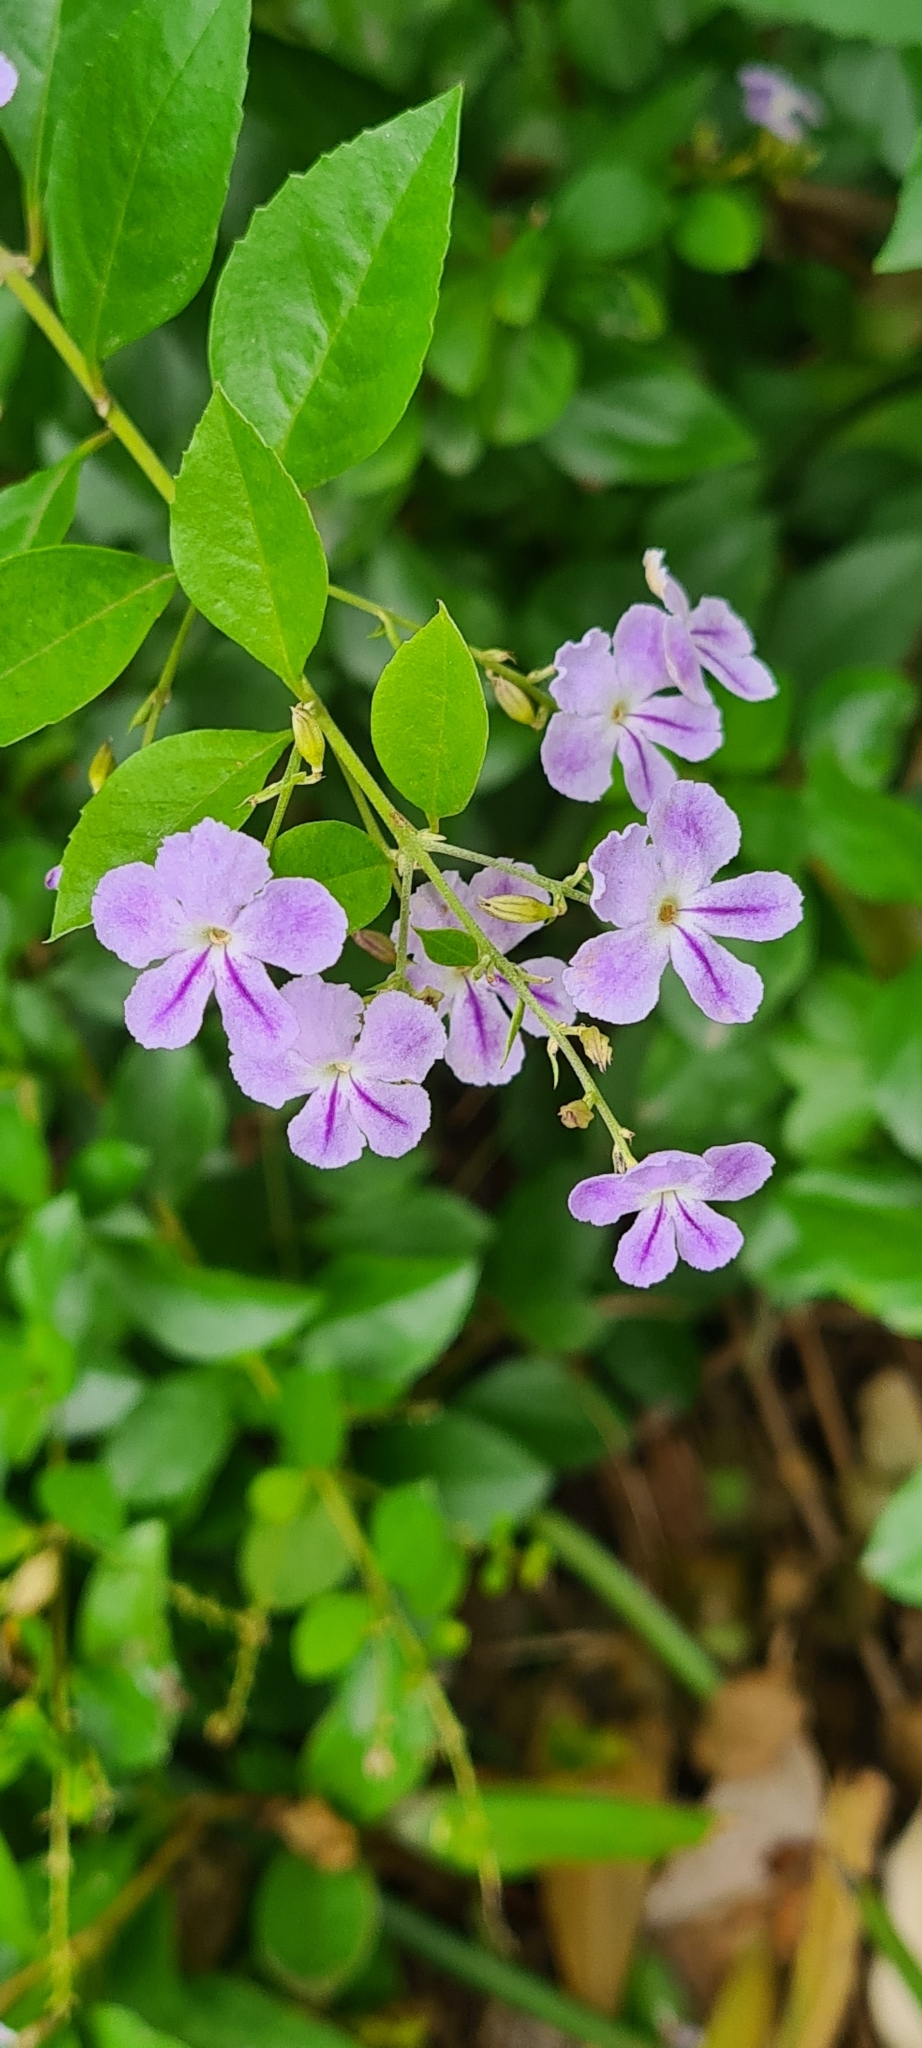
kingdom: Plantae
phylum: Tracheophyta
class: Magnoliopsida
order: Lamiales
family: Verbenaceae
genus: Duranta
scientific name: Duranta erecta
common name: Golden dewdrops
